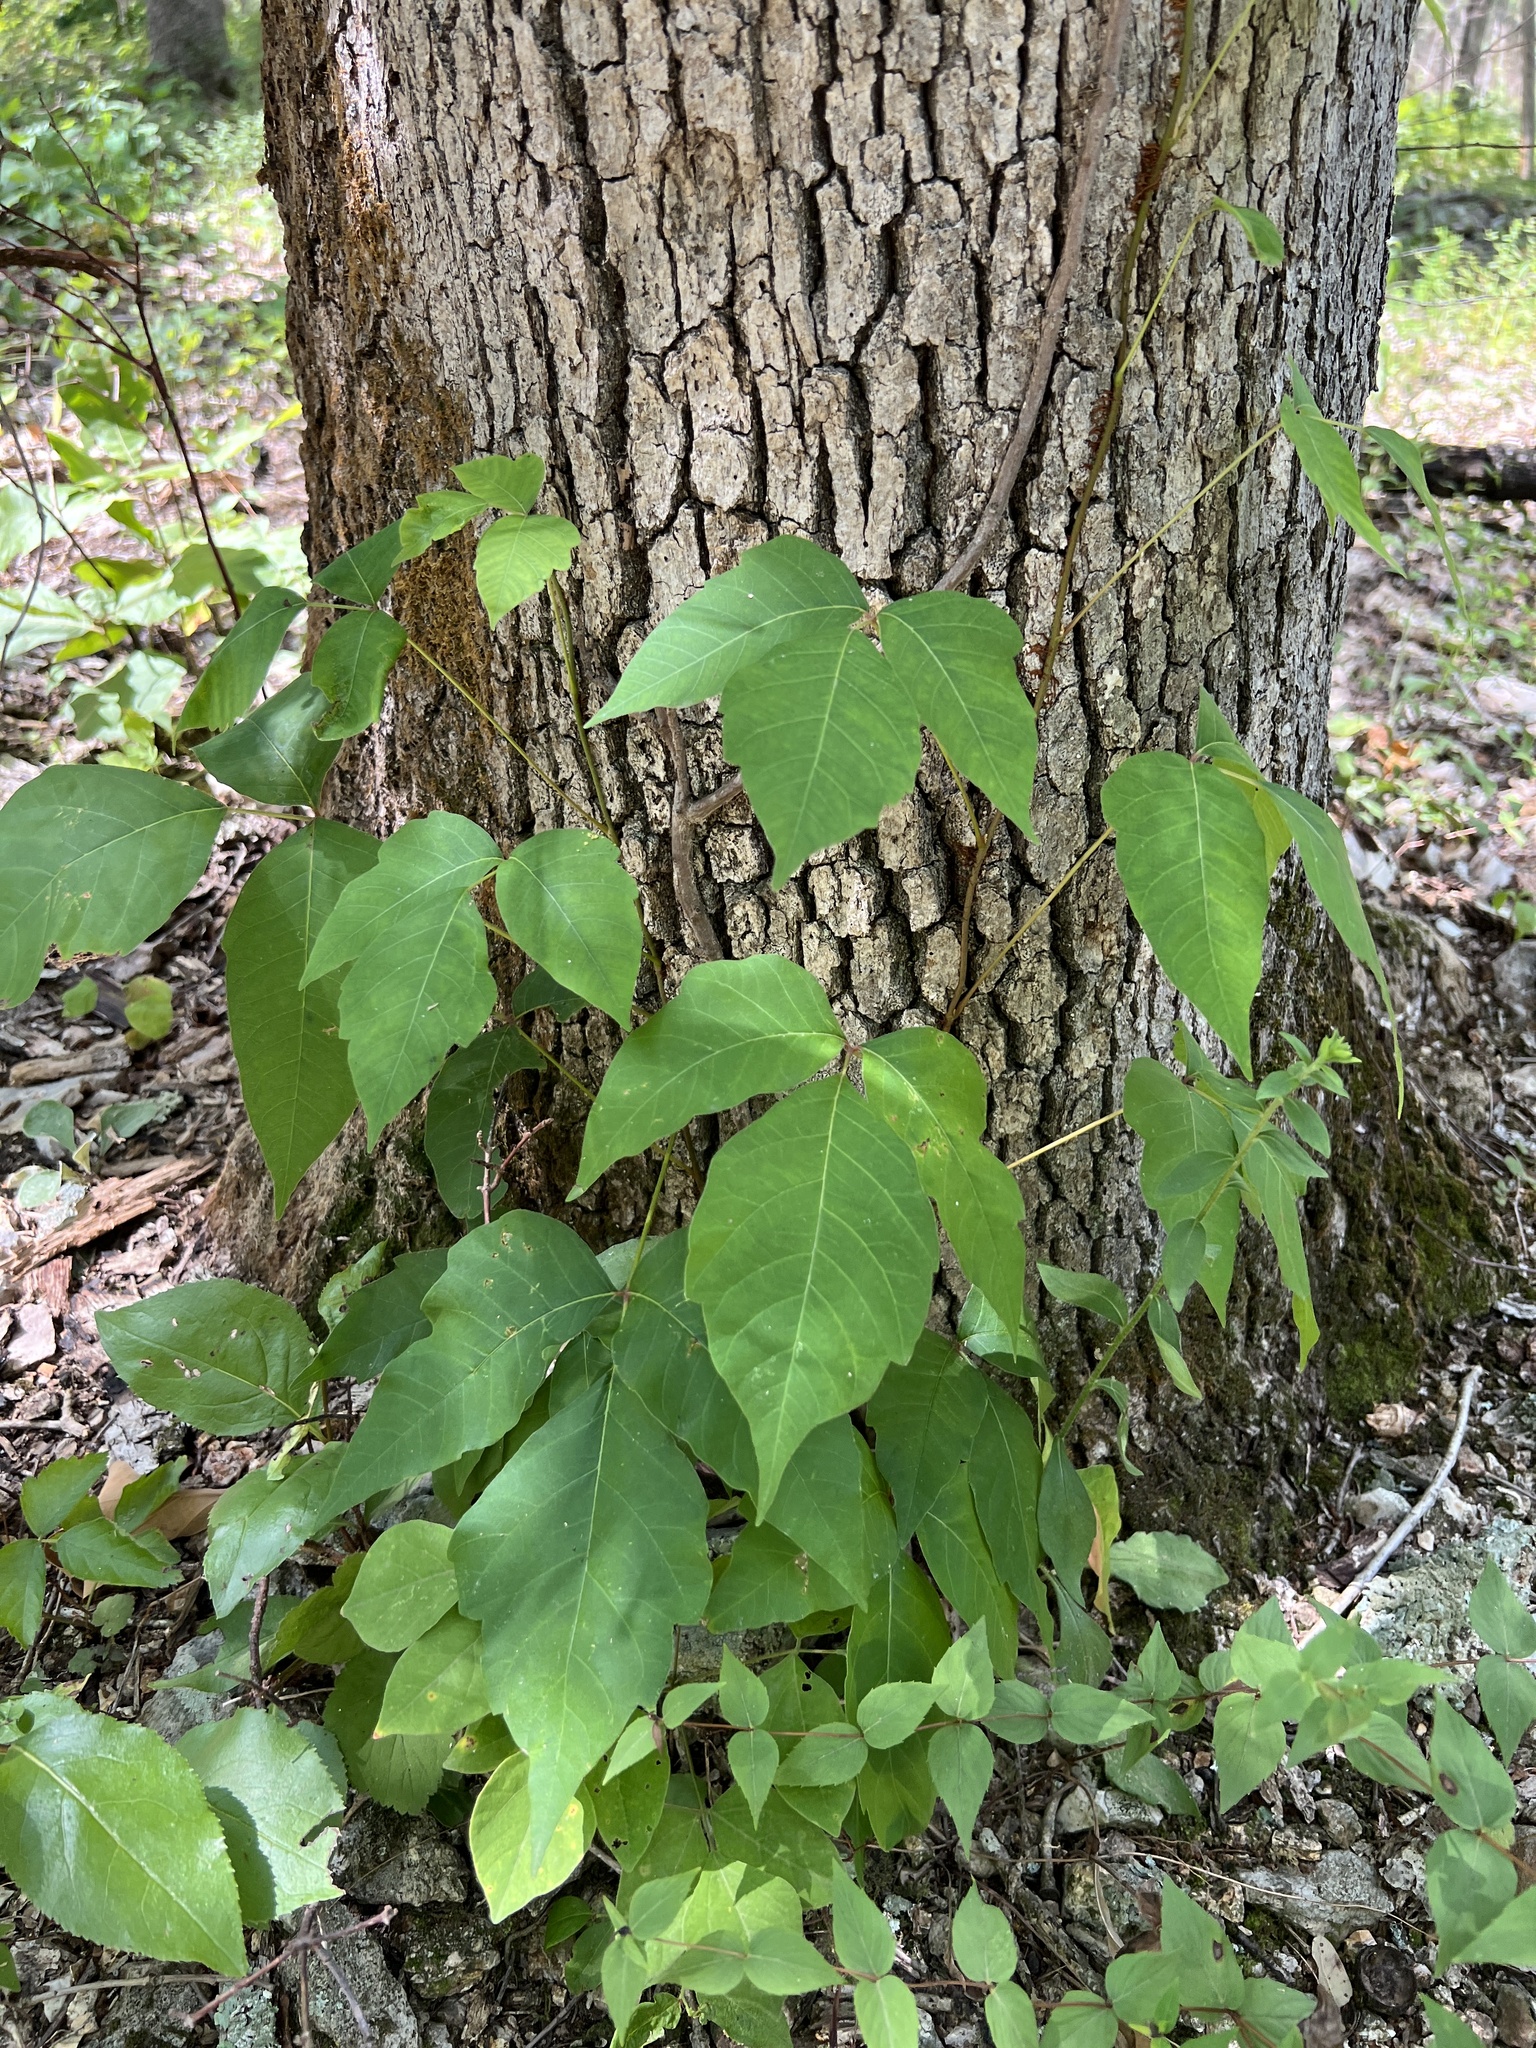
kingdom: Plantae
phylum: Tracheophyta
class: Magnoliopsida
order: Sapindales
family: Anacardiaceae
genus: Toxicodendron
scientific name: Toxicodendron radicans
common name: Poison ivy
